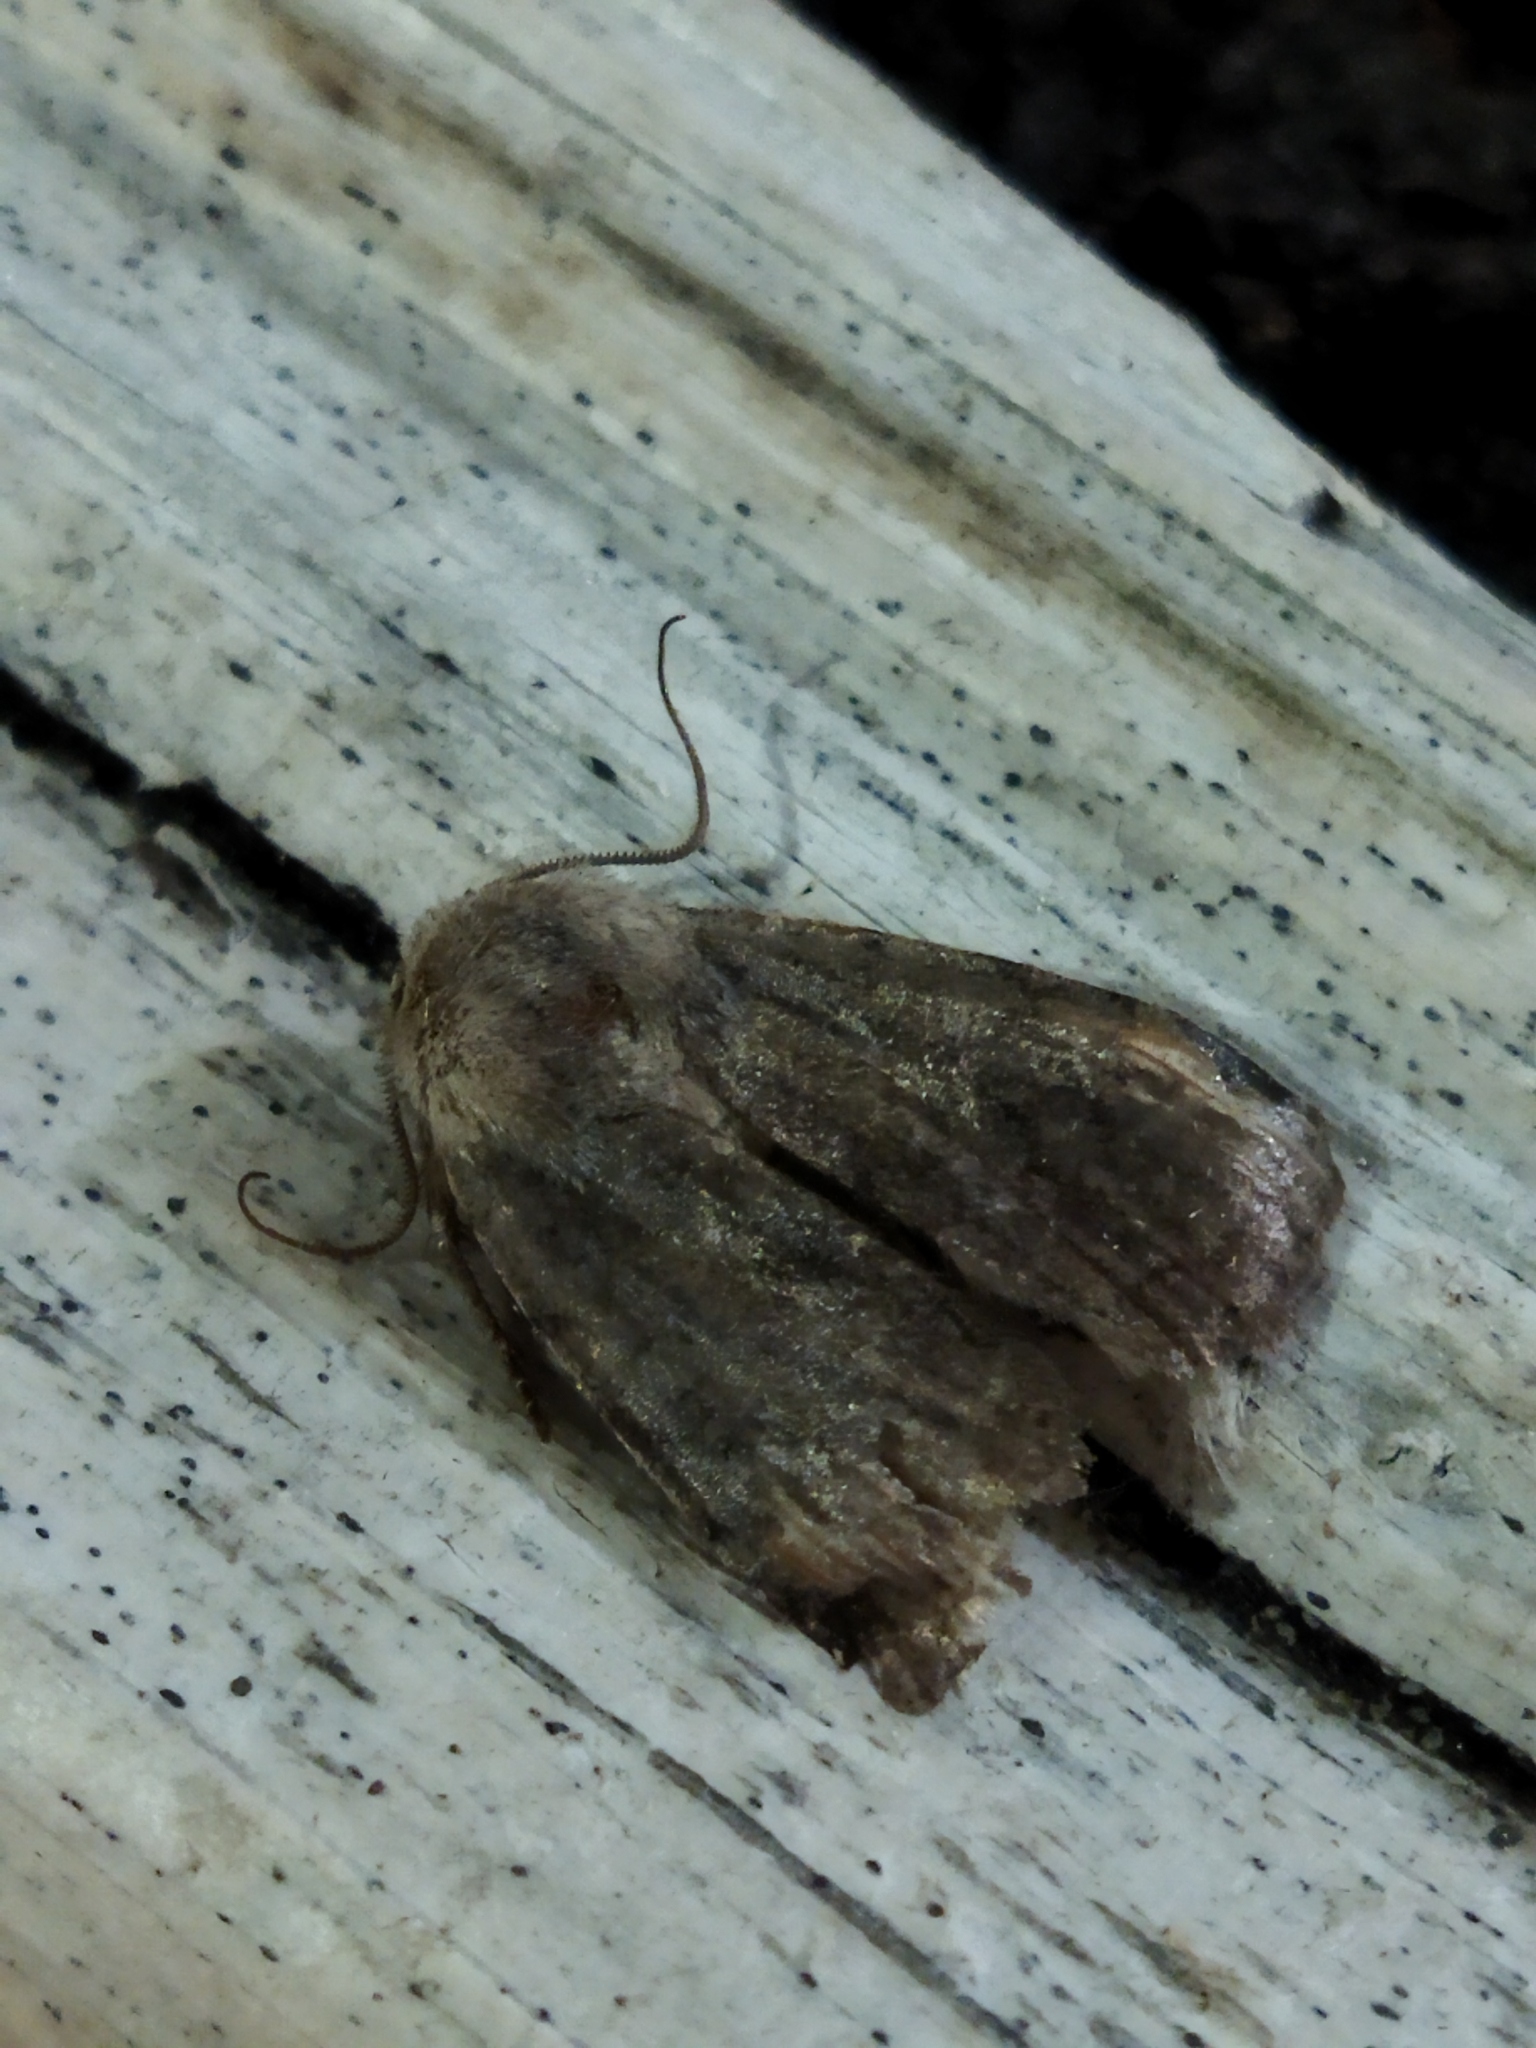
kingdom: Animalia
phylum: Arthropoda
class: Insecta
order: Lepidoptera
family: Noctuidae
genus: Cerastis
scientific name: Cerastis rubricosa
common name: Red chestnut
